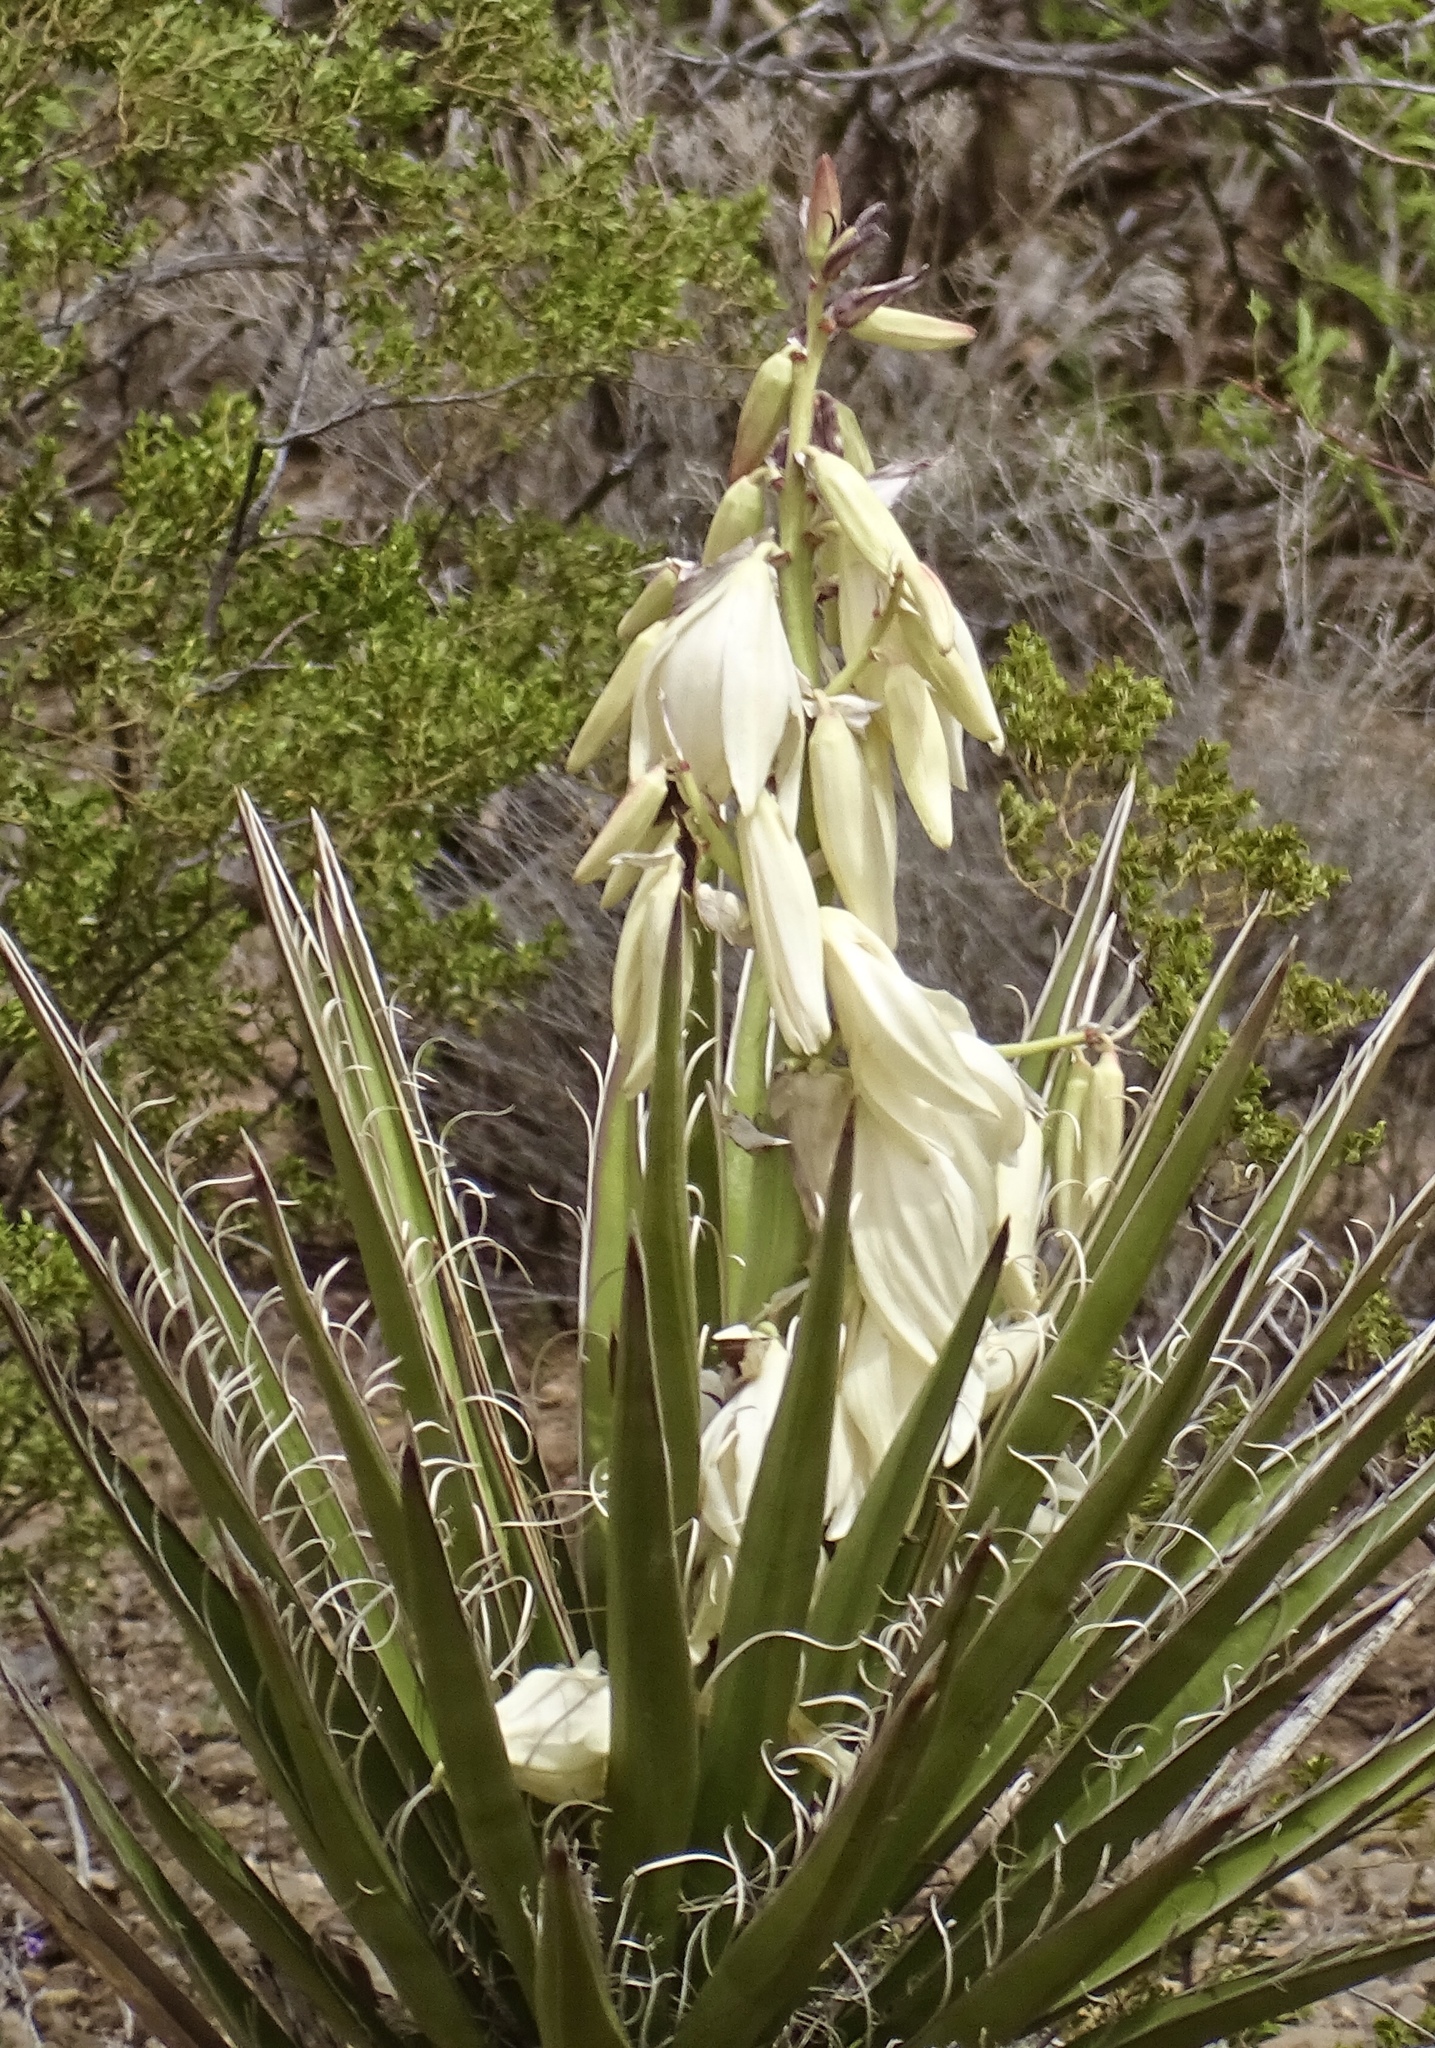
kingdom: Plantae
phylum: Tracheophyta
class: Liliopsida
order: Asparagales
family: Asparagaceae
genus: Yucca
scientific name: Yucca baccata
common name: Banana yucca
